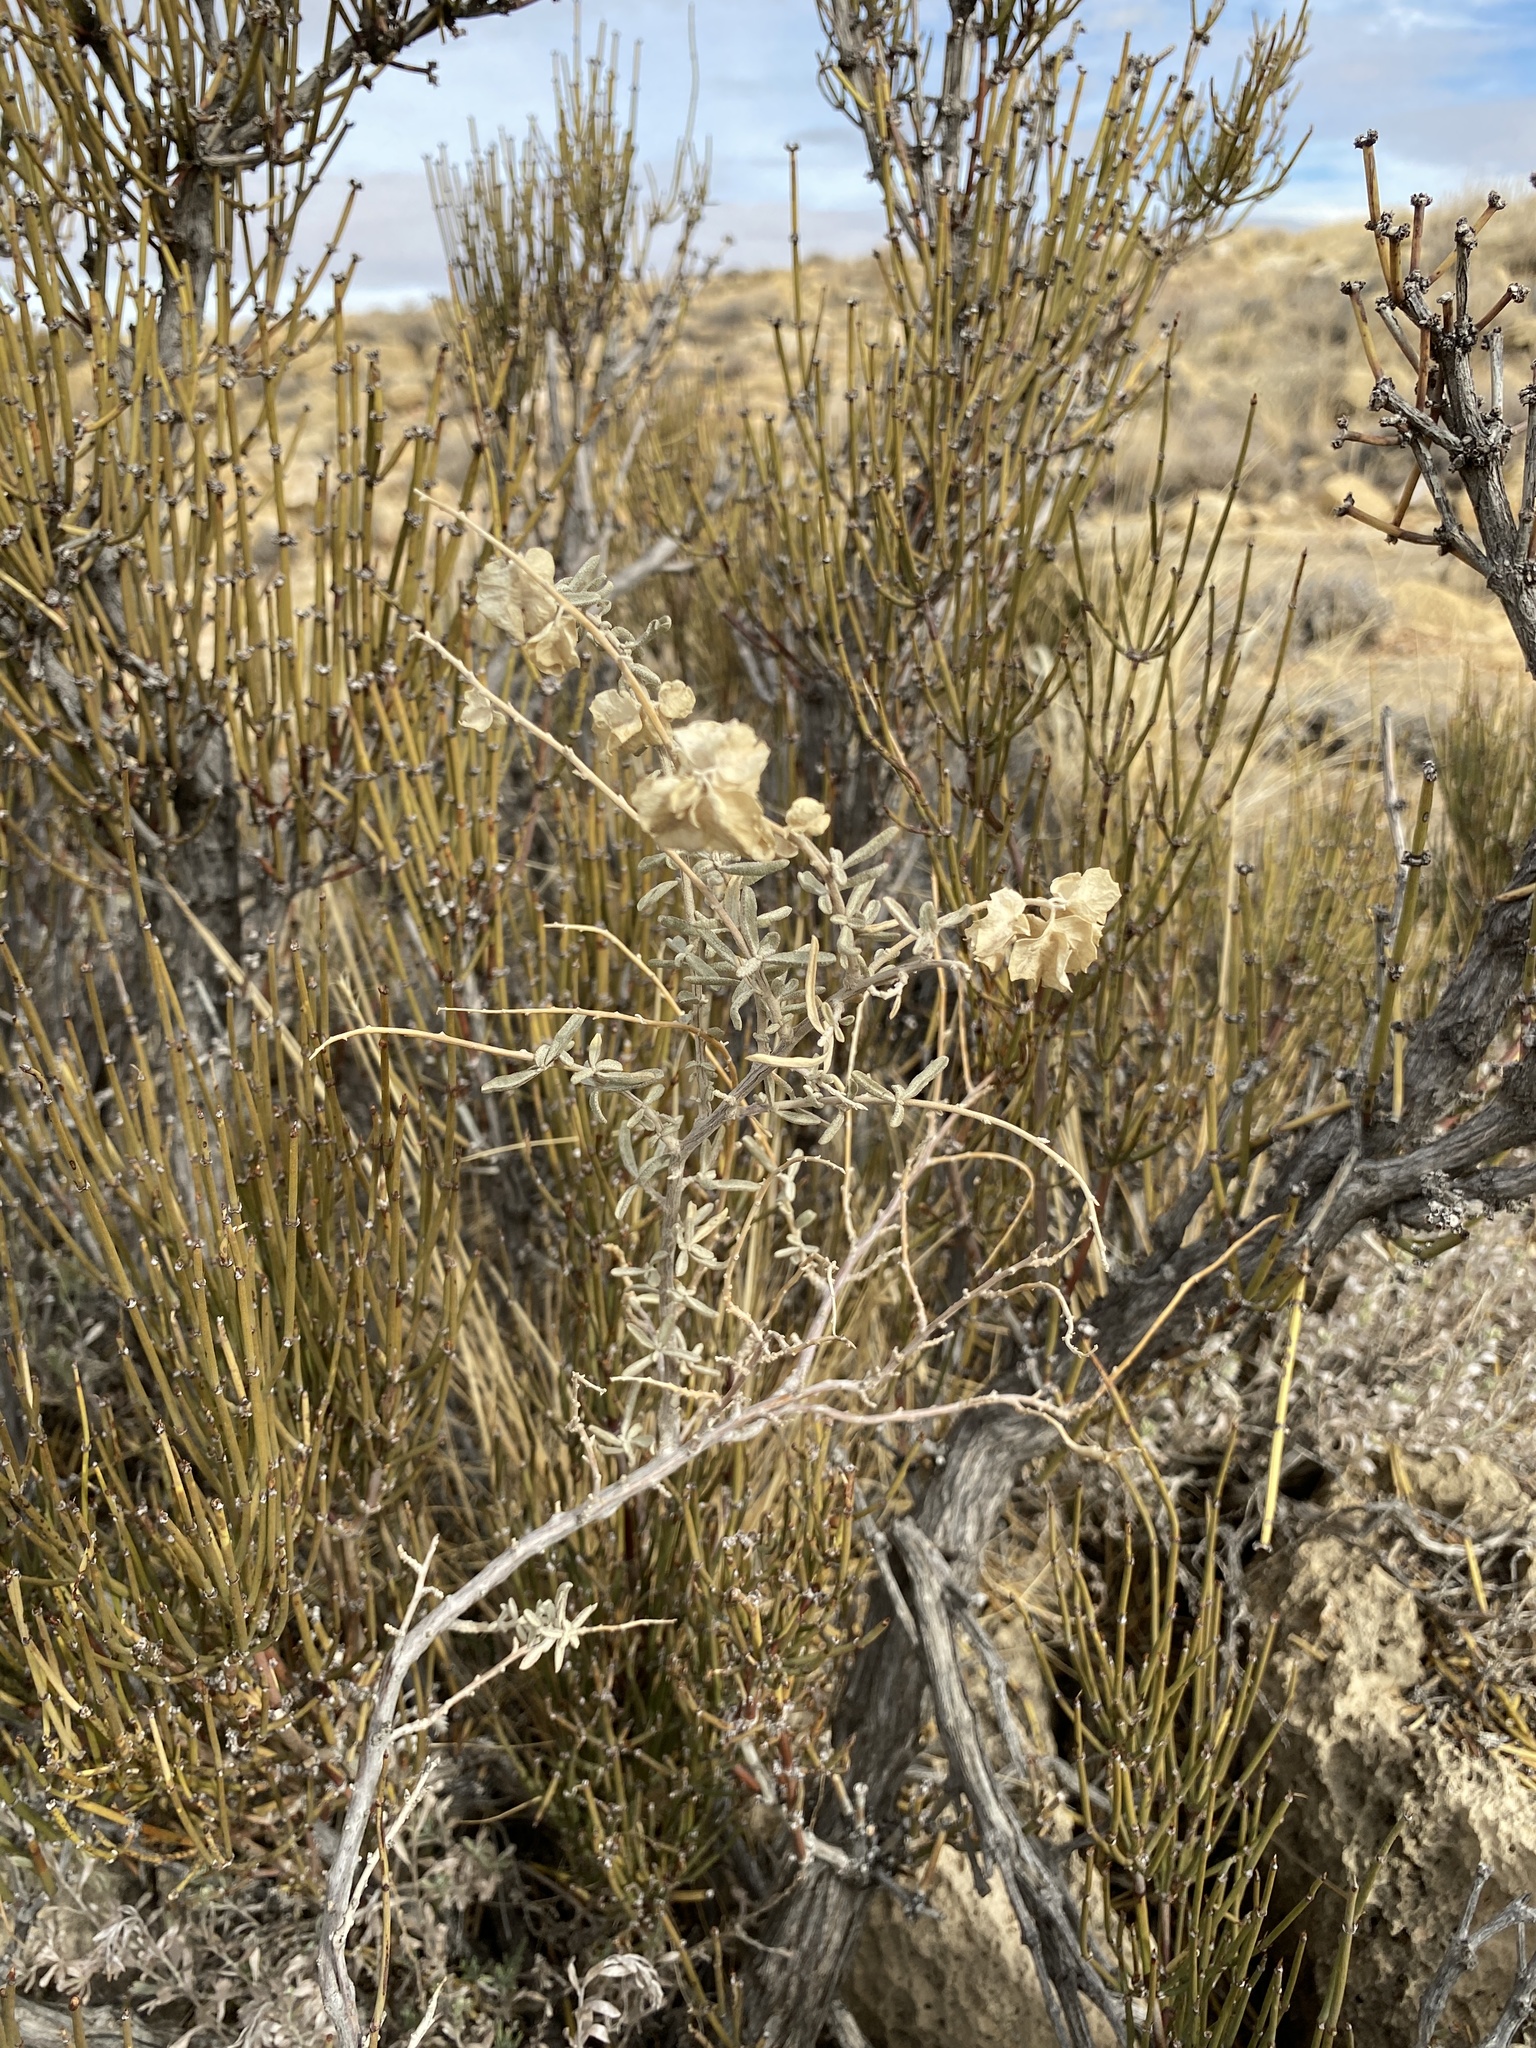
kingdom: Plantae
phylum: Tracheophyta
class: Magnoliopsida
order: Caryophyllales
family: Amaranthaceae
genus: Atriplex
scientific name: Atriplex canescens
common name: Four-wing saltbush
